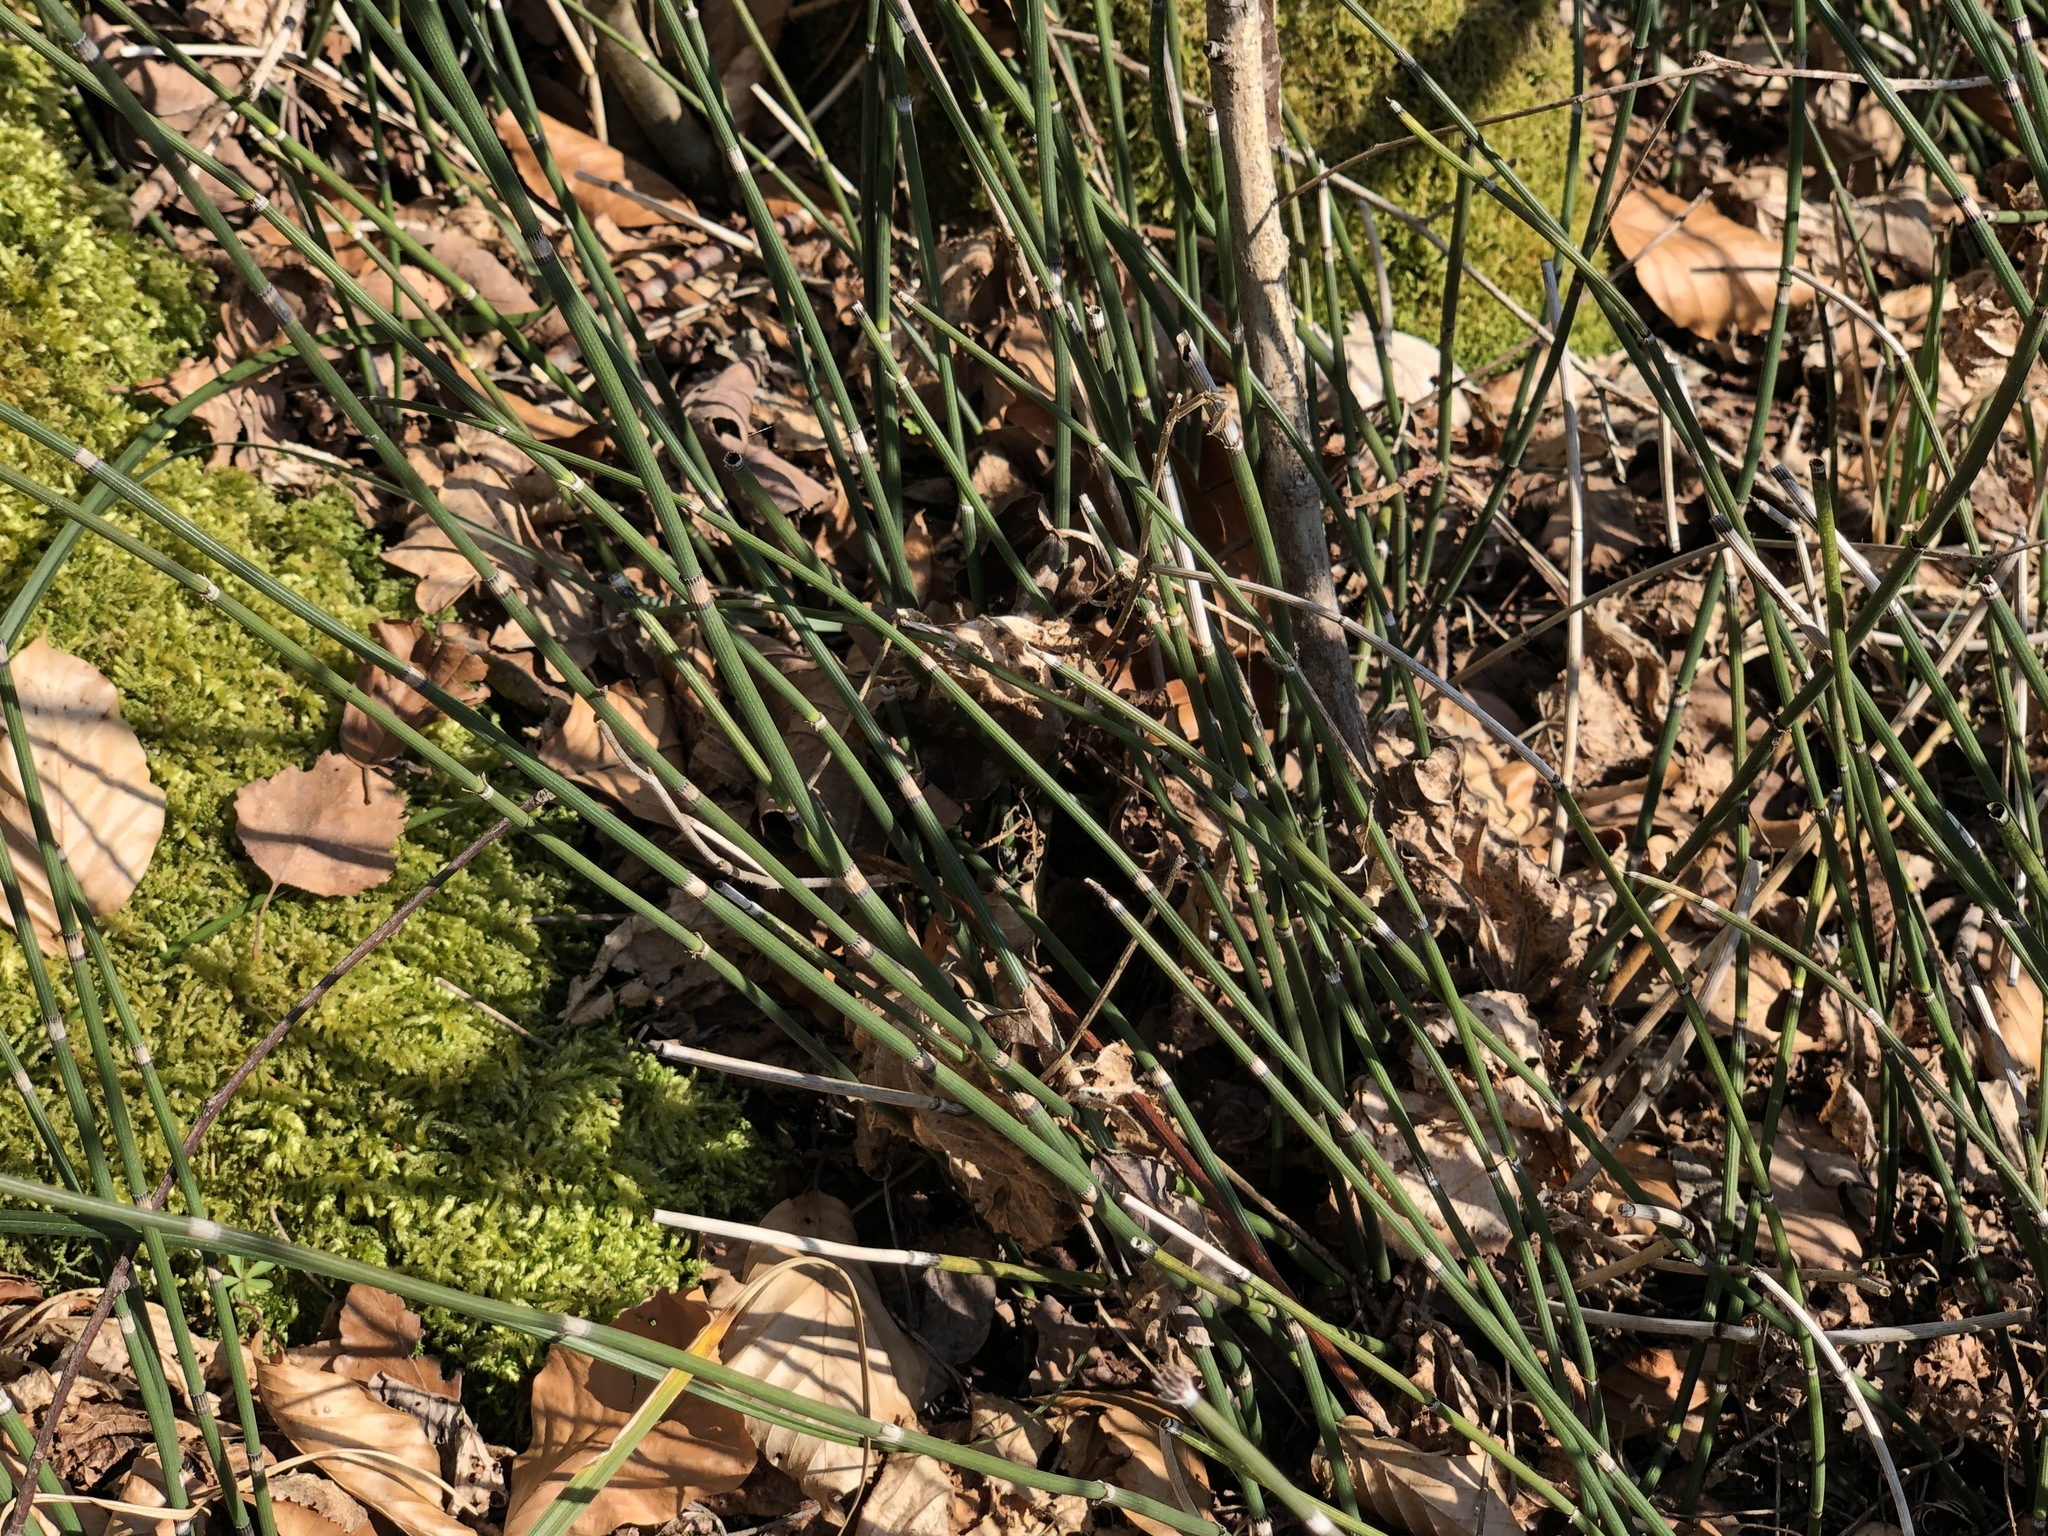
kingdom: Plantae
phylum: Tracheophyta
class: Polypodiopsida
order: Equisetales
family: Equisetaceae
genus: Equisetum
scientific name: Equisetum hyemale
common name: Rough horsetail
